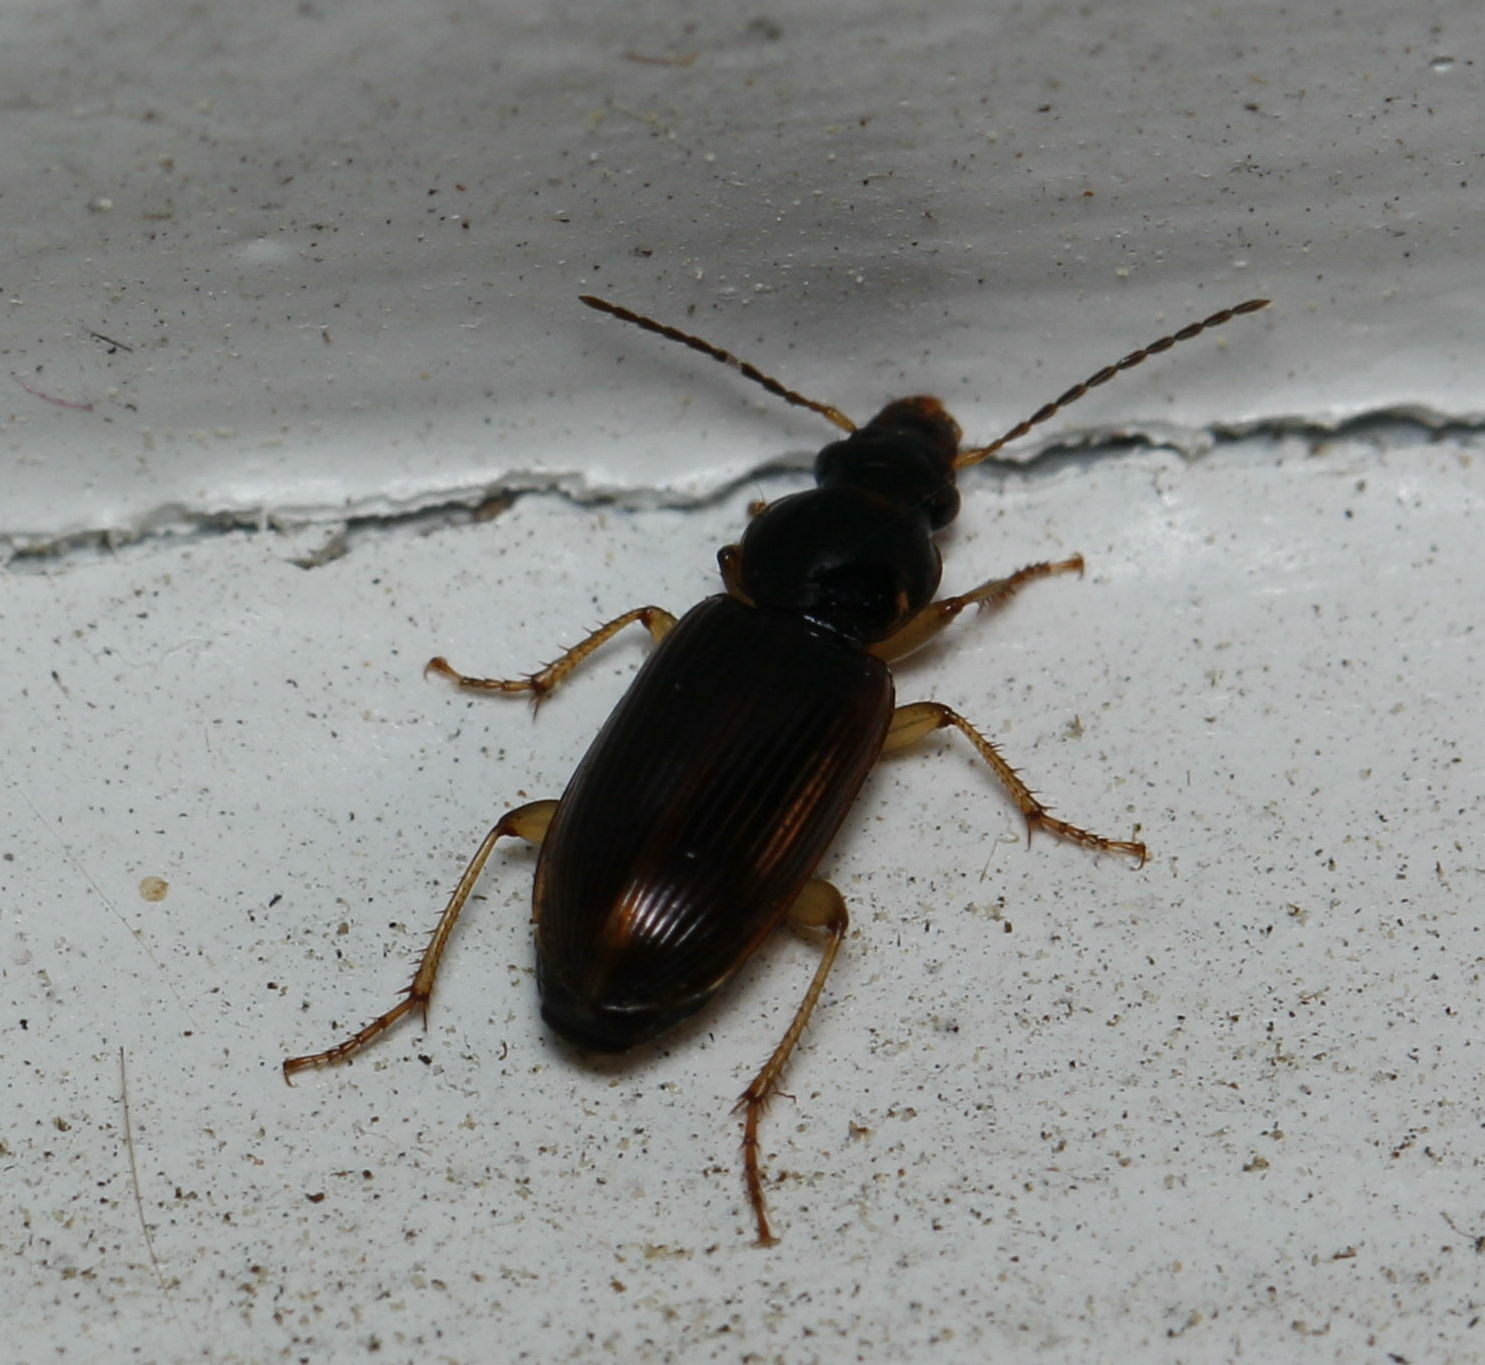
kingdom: Animalia
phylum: Arthropoda
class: Insecta
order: Coleoptera
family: Carabidae
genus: Stenolophus
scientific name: Stenolophus ochropezus
